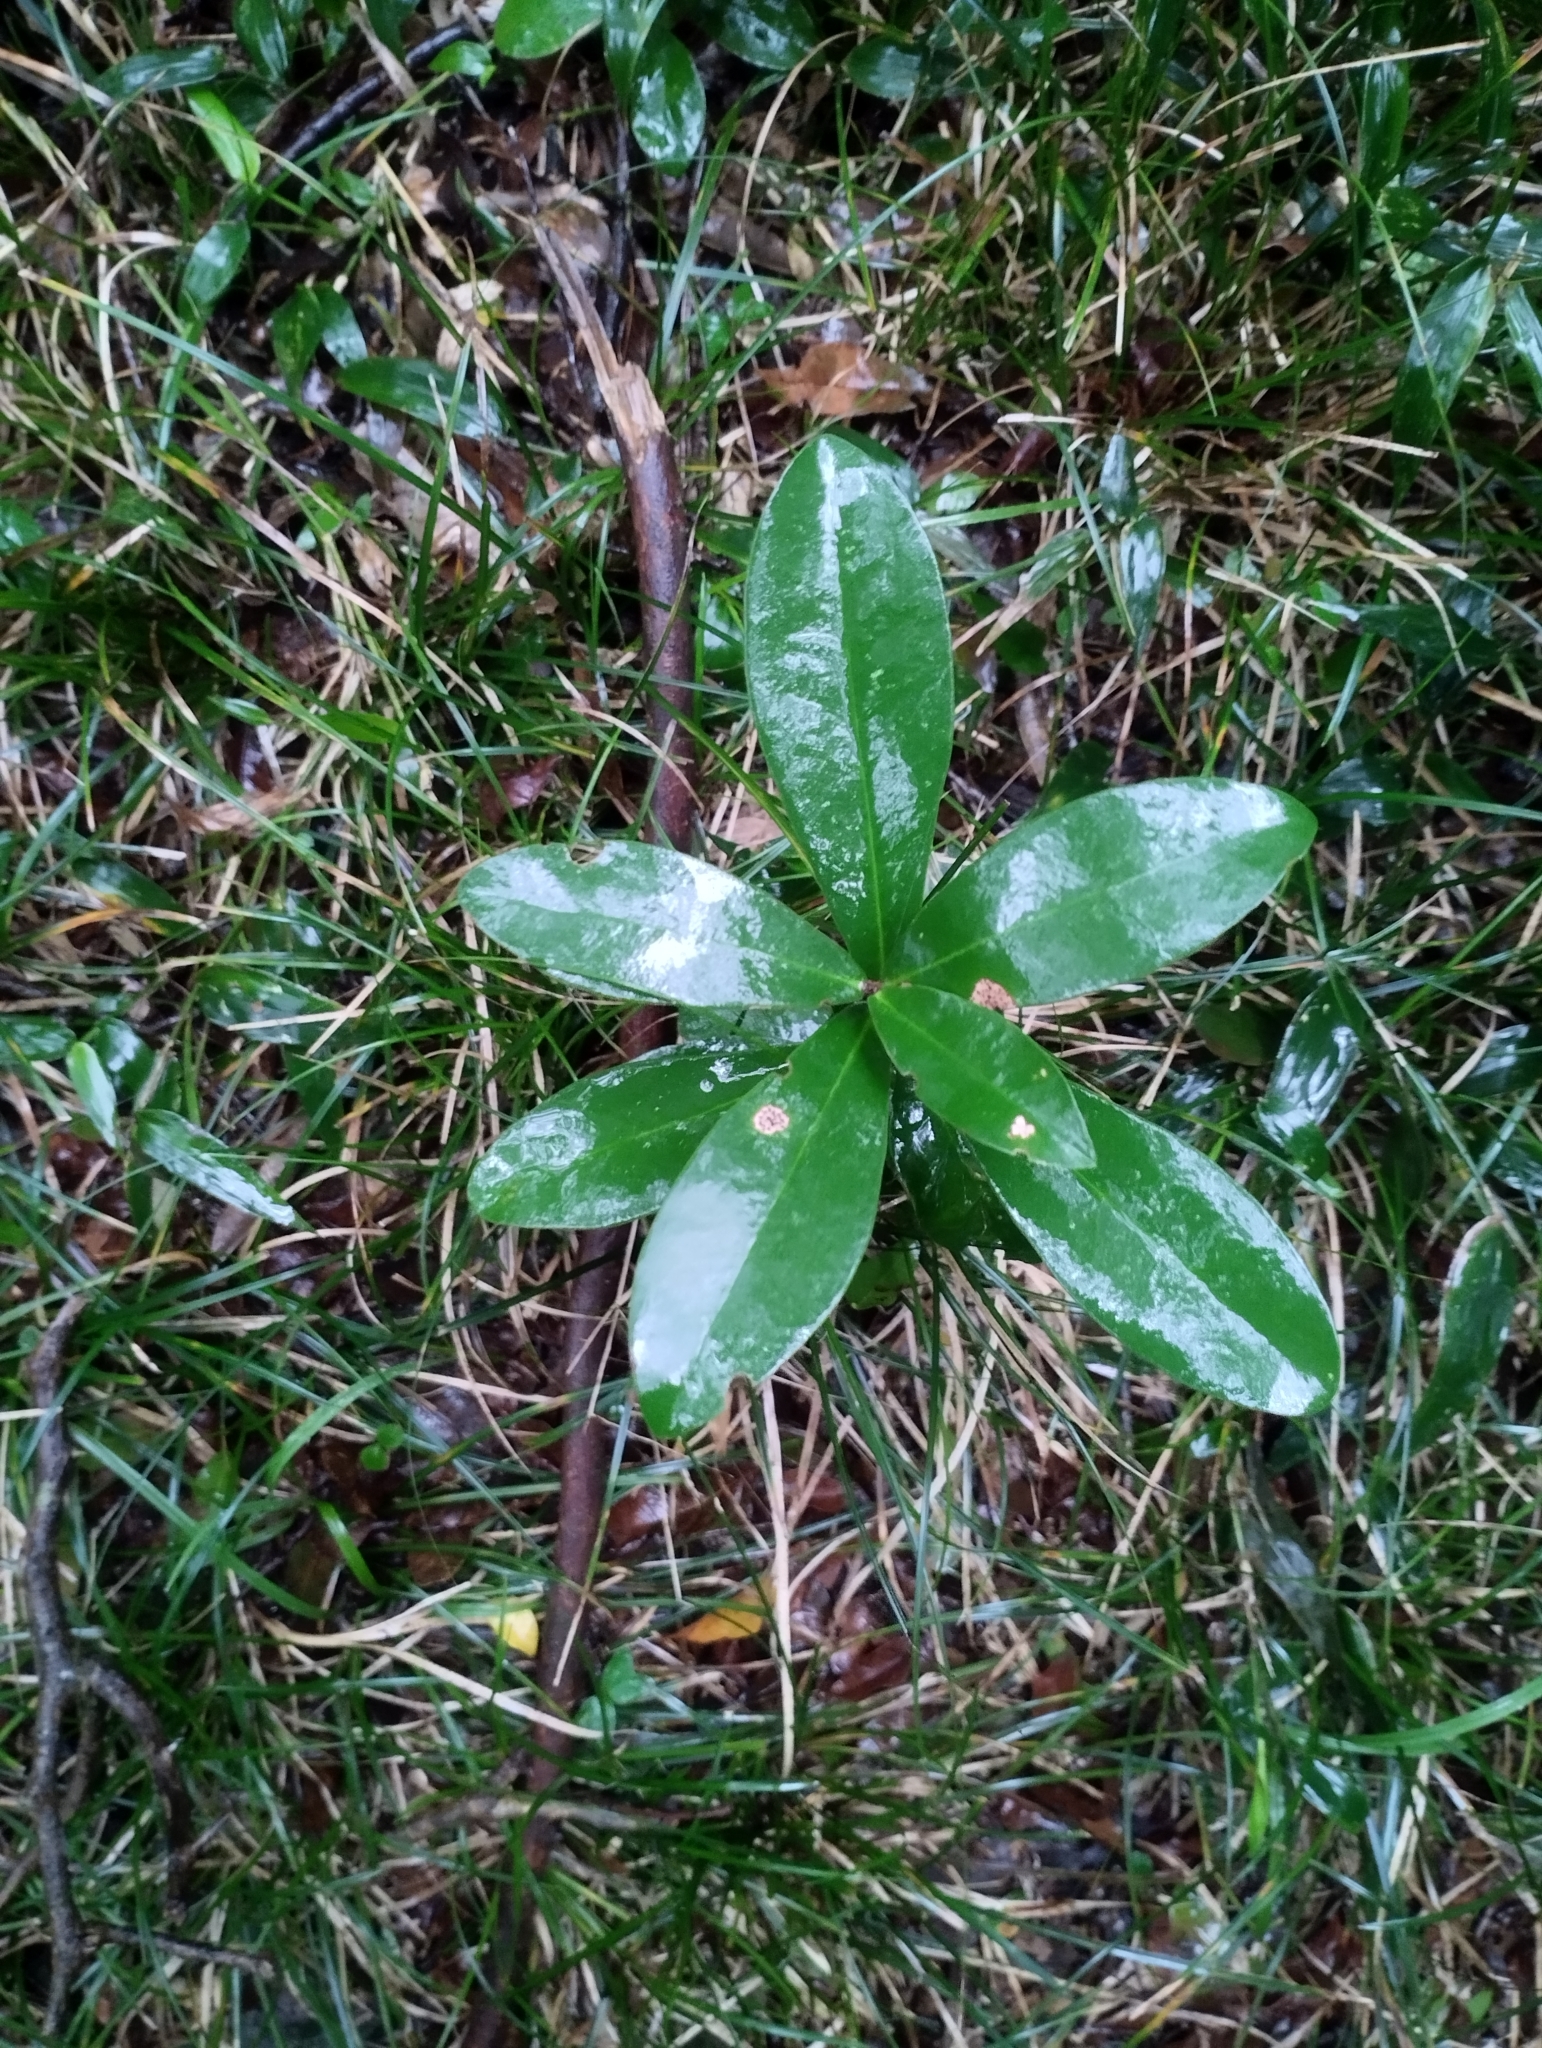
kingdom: Plantae
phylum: Tracheophyta
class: Magnoliopsida
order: Malvales
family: Thymelaeaceae
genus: Daphnopsis
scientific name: Daphnopsis racemosa
